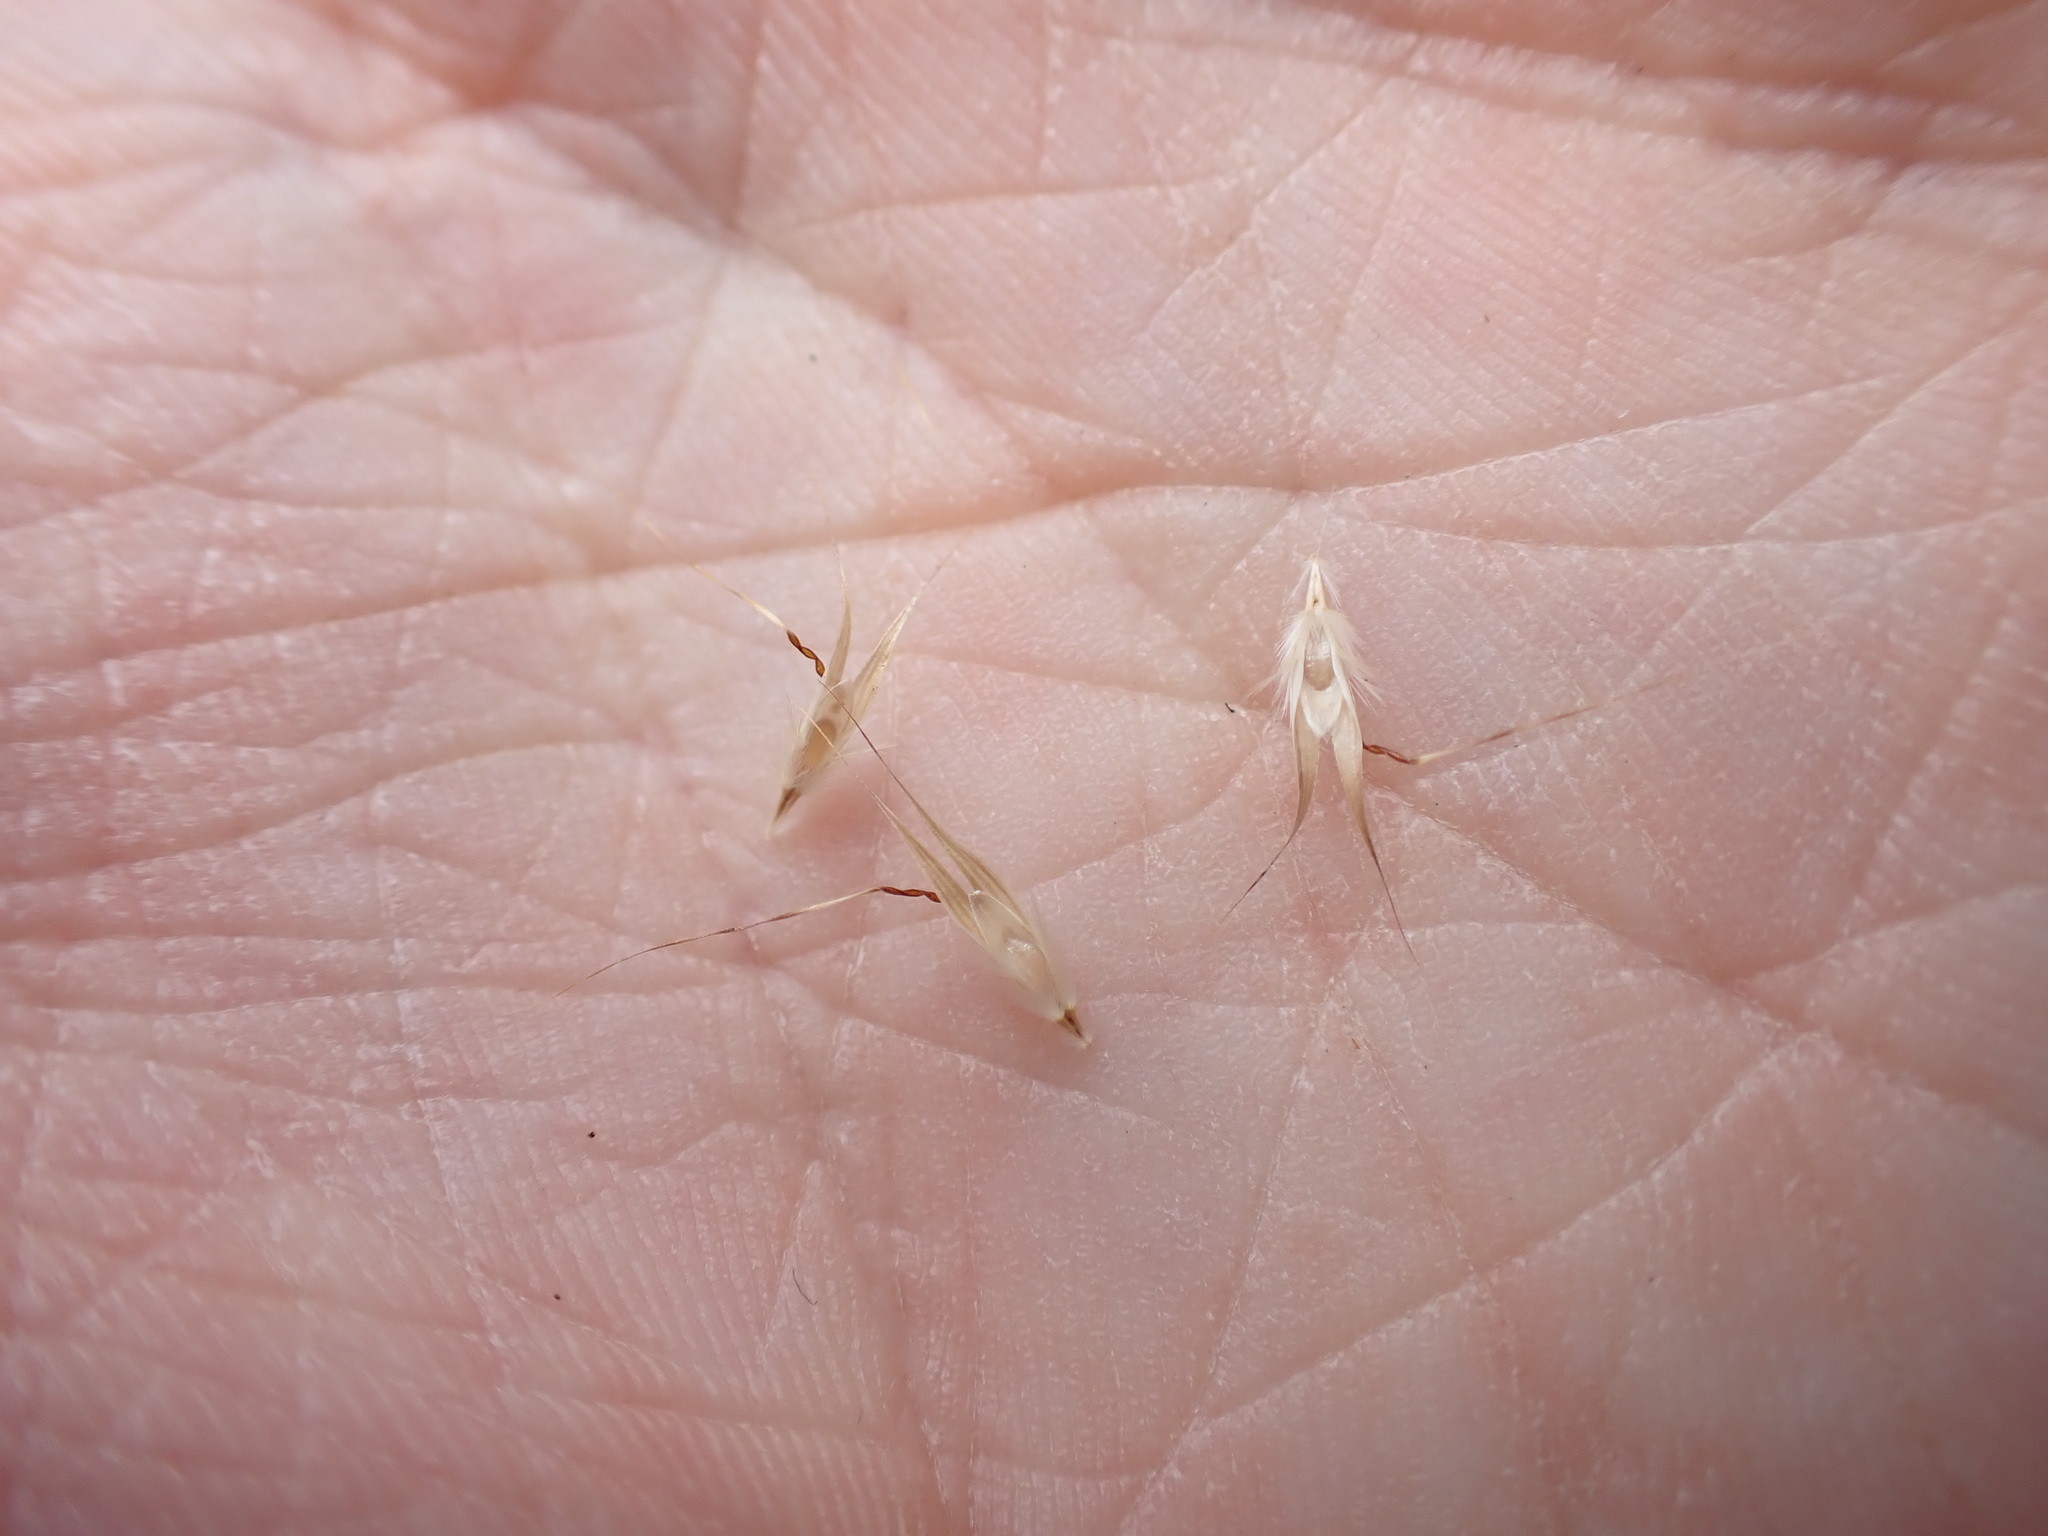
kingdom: Plantae
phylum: Tracheophyta
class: Liliopsida
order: Poales
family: Poaceae
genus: Rytidosperma
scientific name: Rytidosperma racemosum
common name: Wallaby-grass
